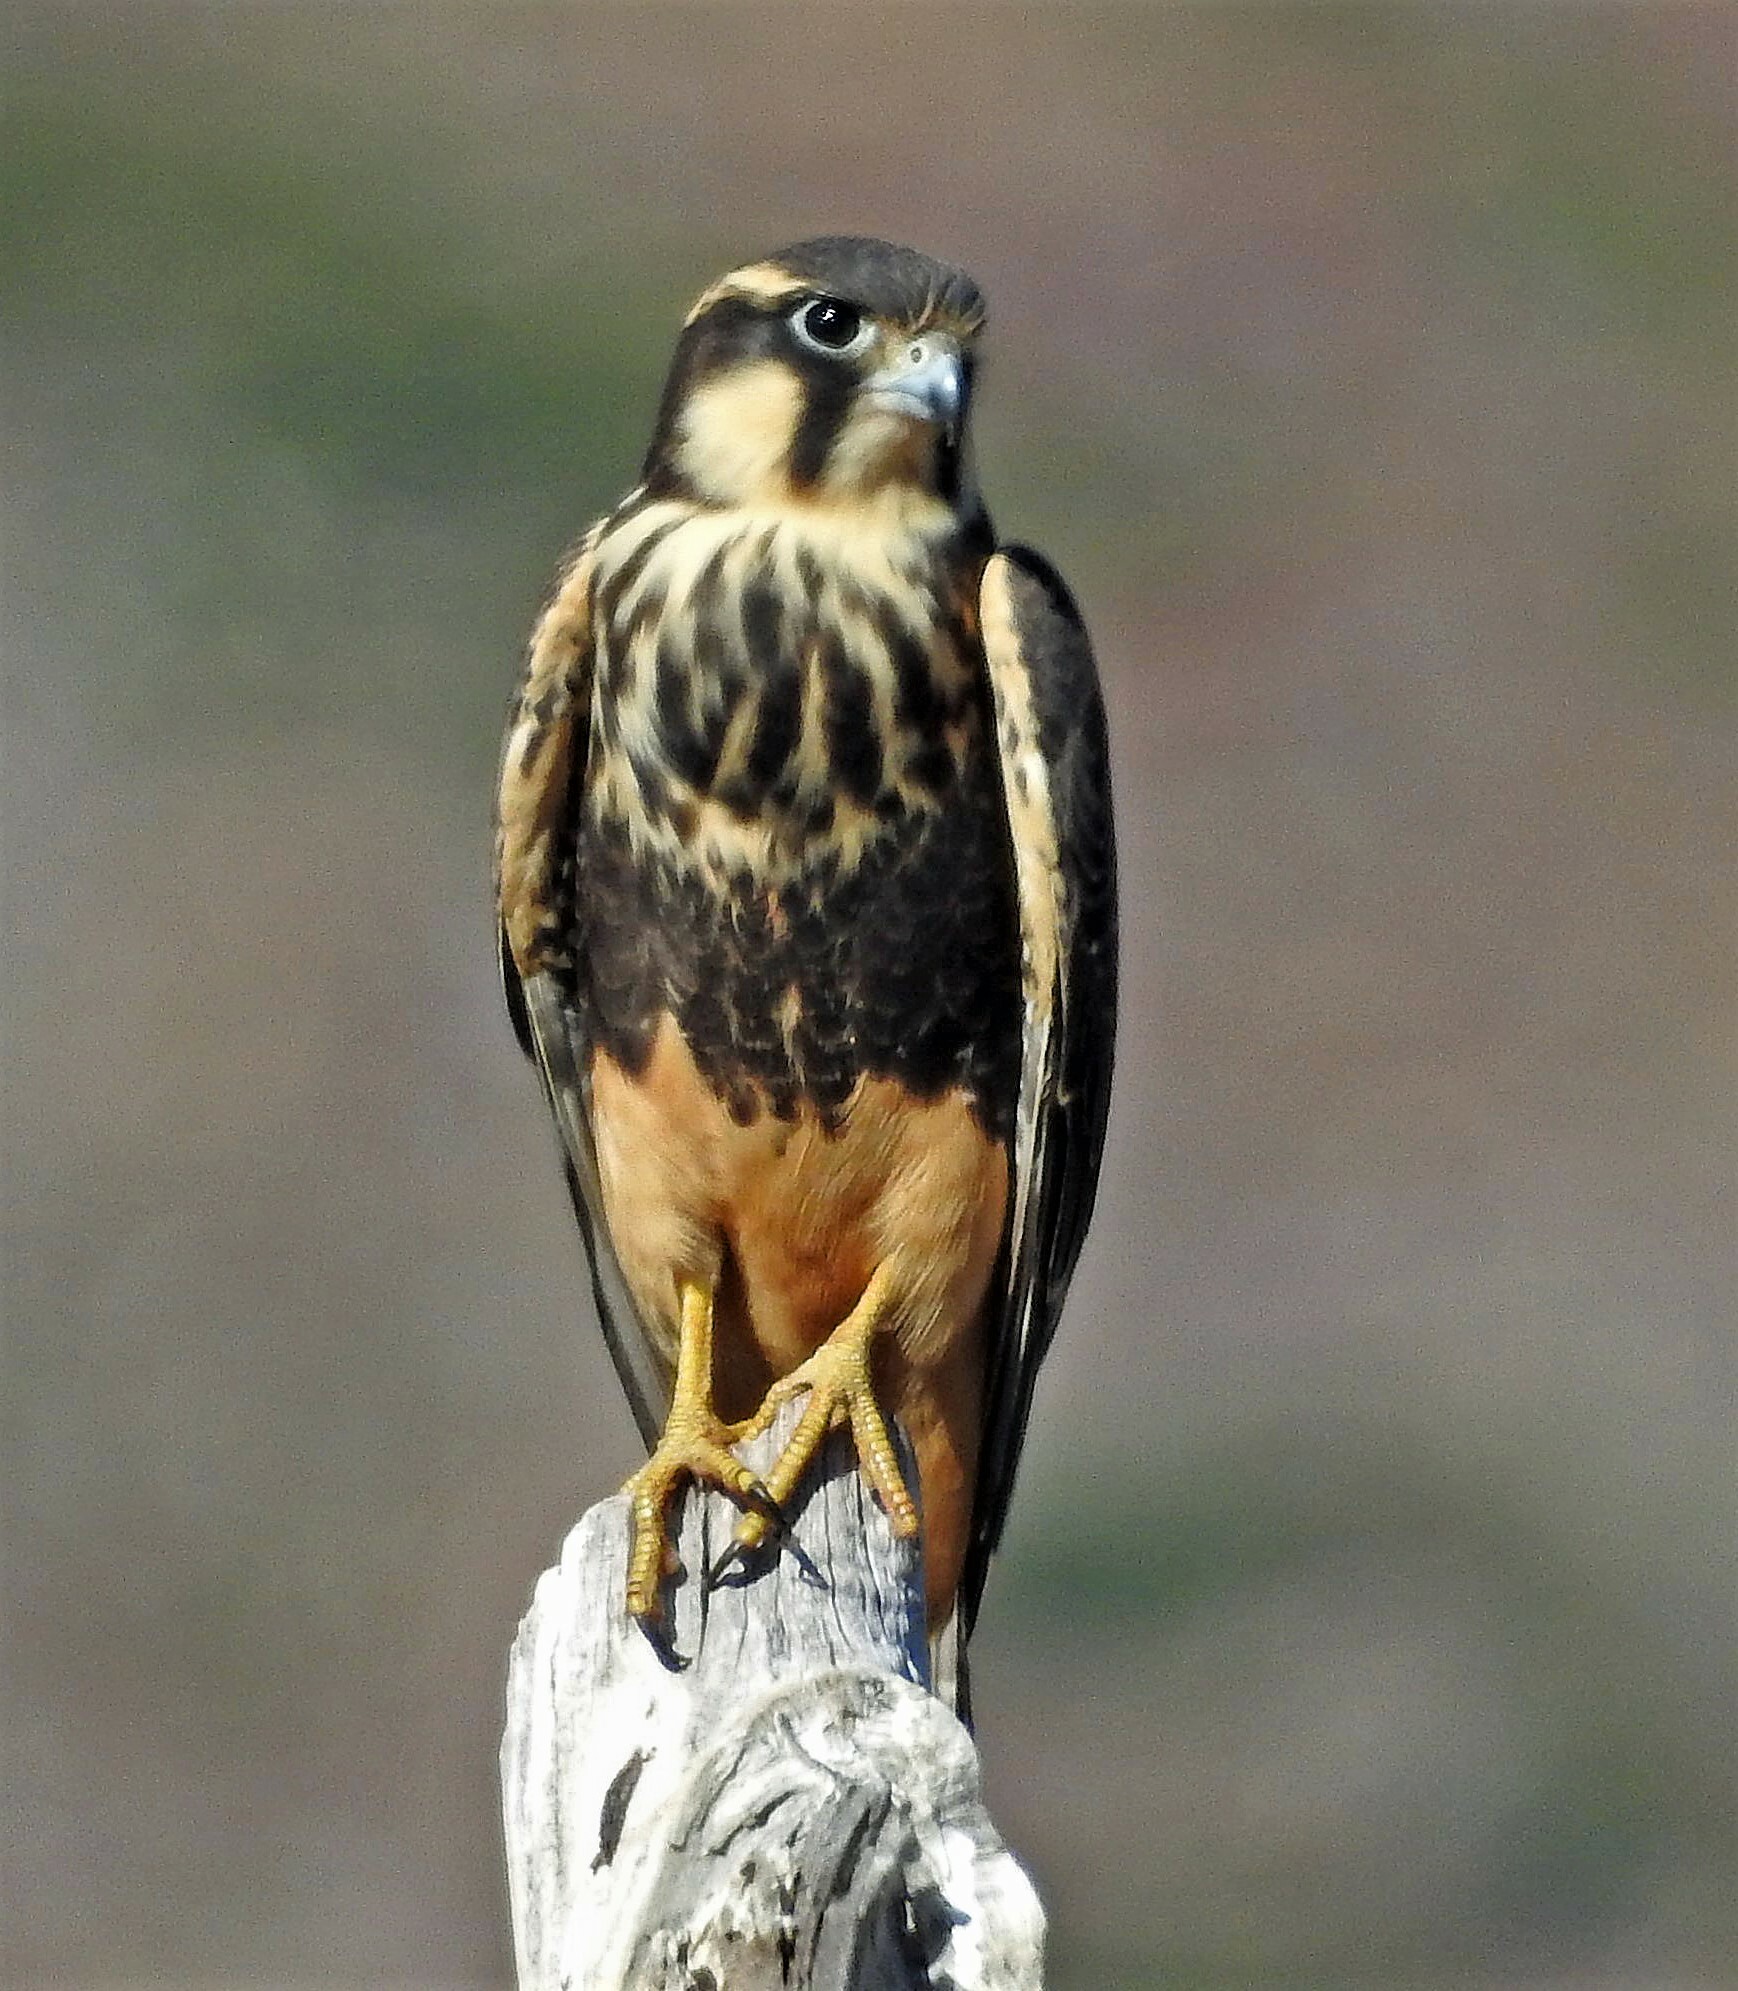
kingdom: Animalia
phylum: Chordata
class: Aves
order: Falconiformes
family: Falconidae
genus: Falco
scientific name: Falco femoralis
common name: Aplomado falcon
